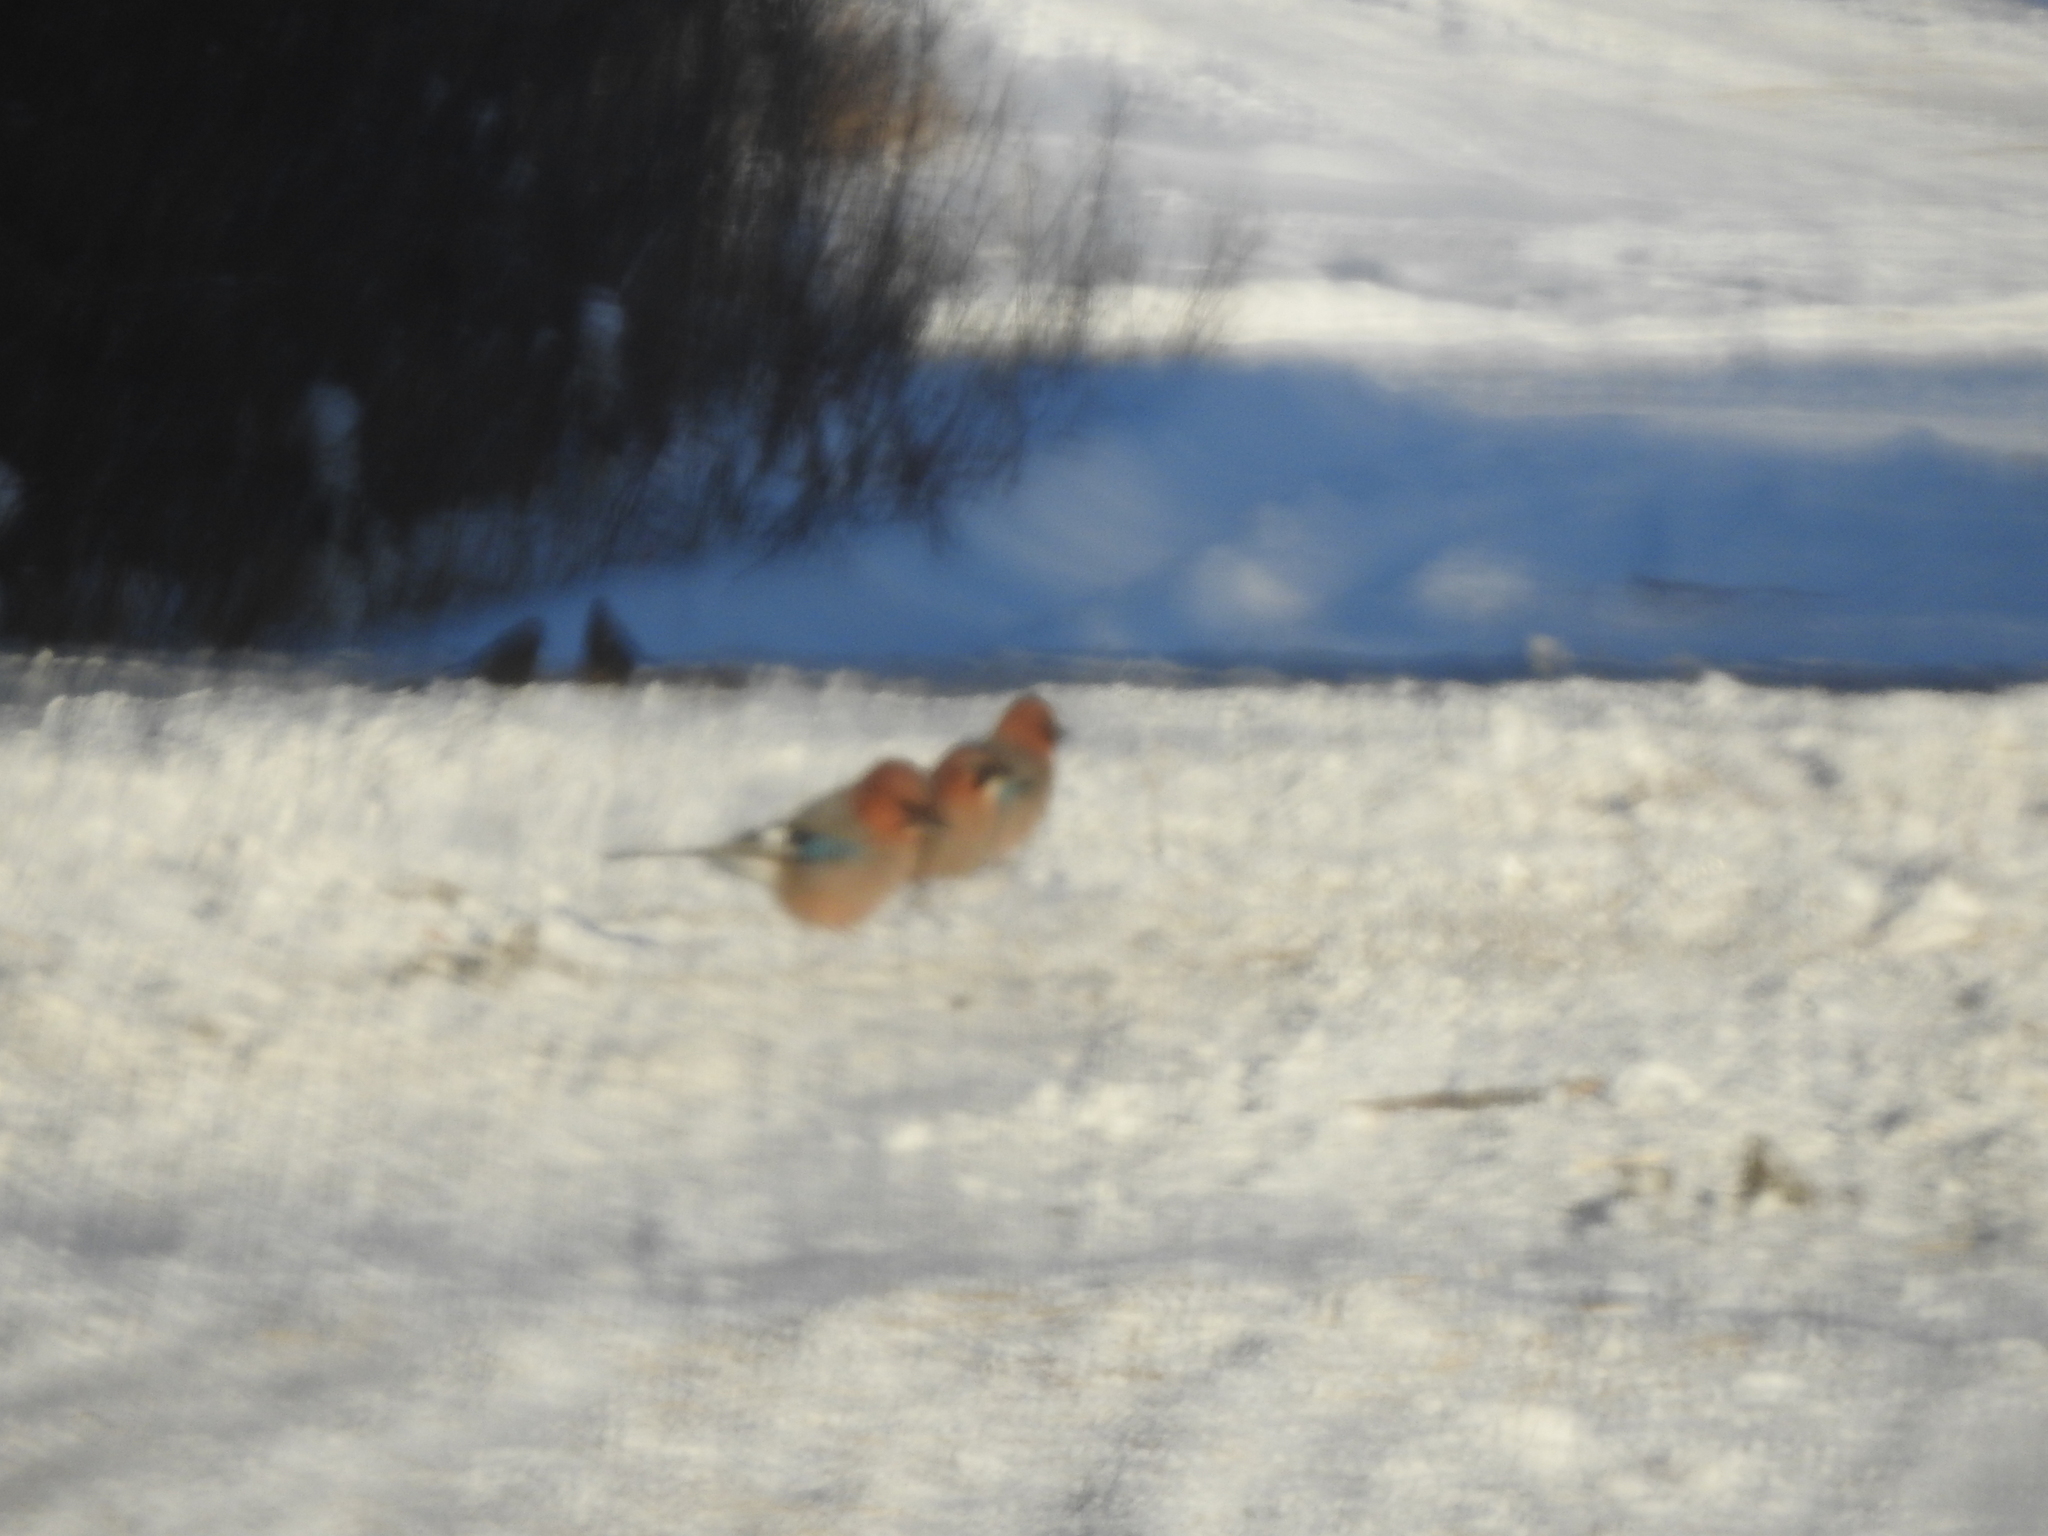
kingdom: Animalia
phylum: Chordata
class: Aves
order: Passeriformes
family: Corvidae
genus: Garrulus
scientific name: Garrulus glandarius
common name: Eurasian jay
